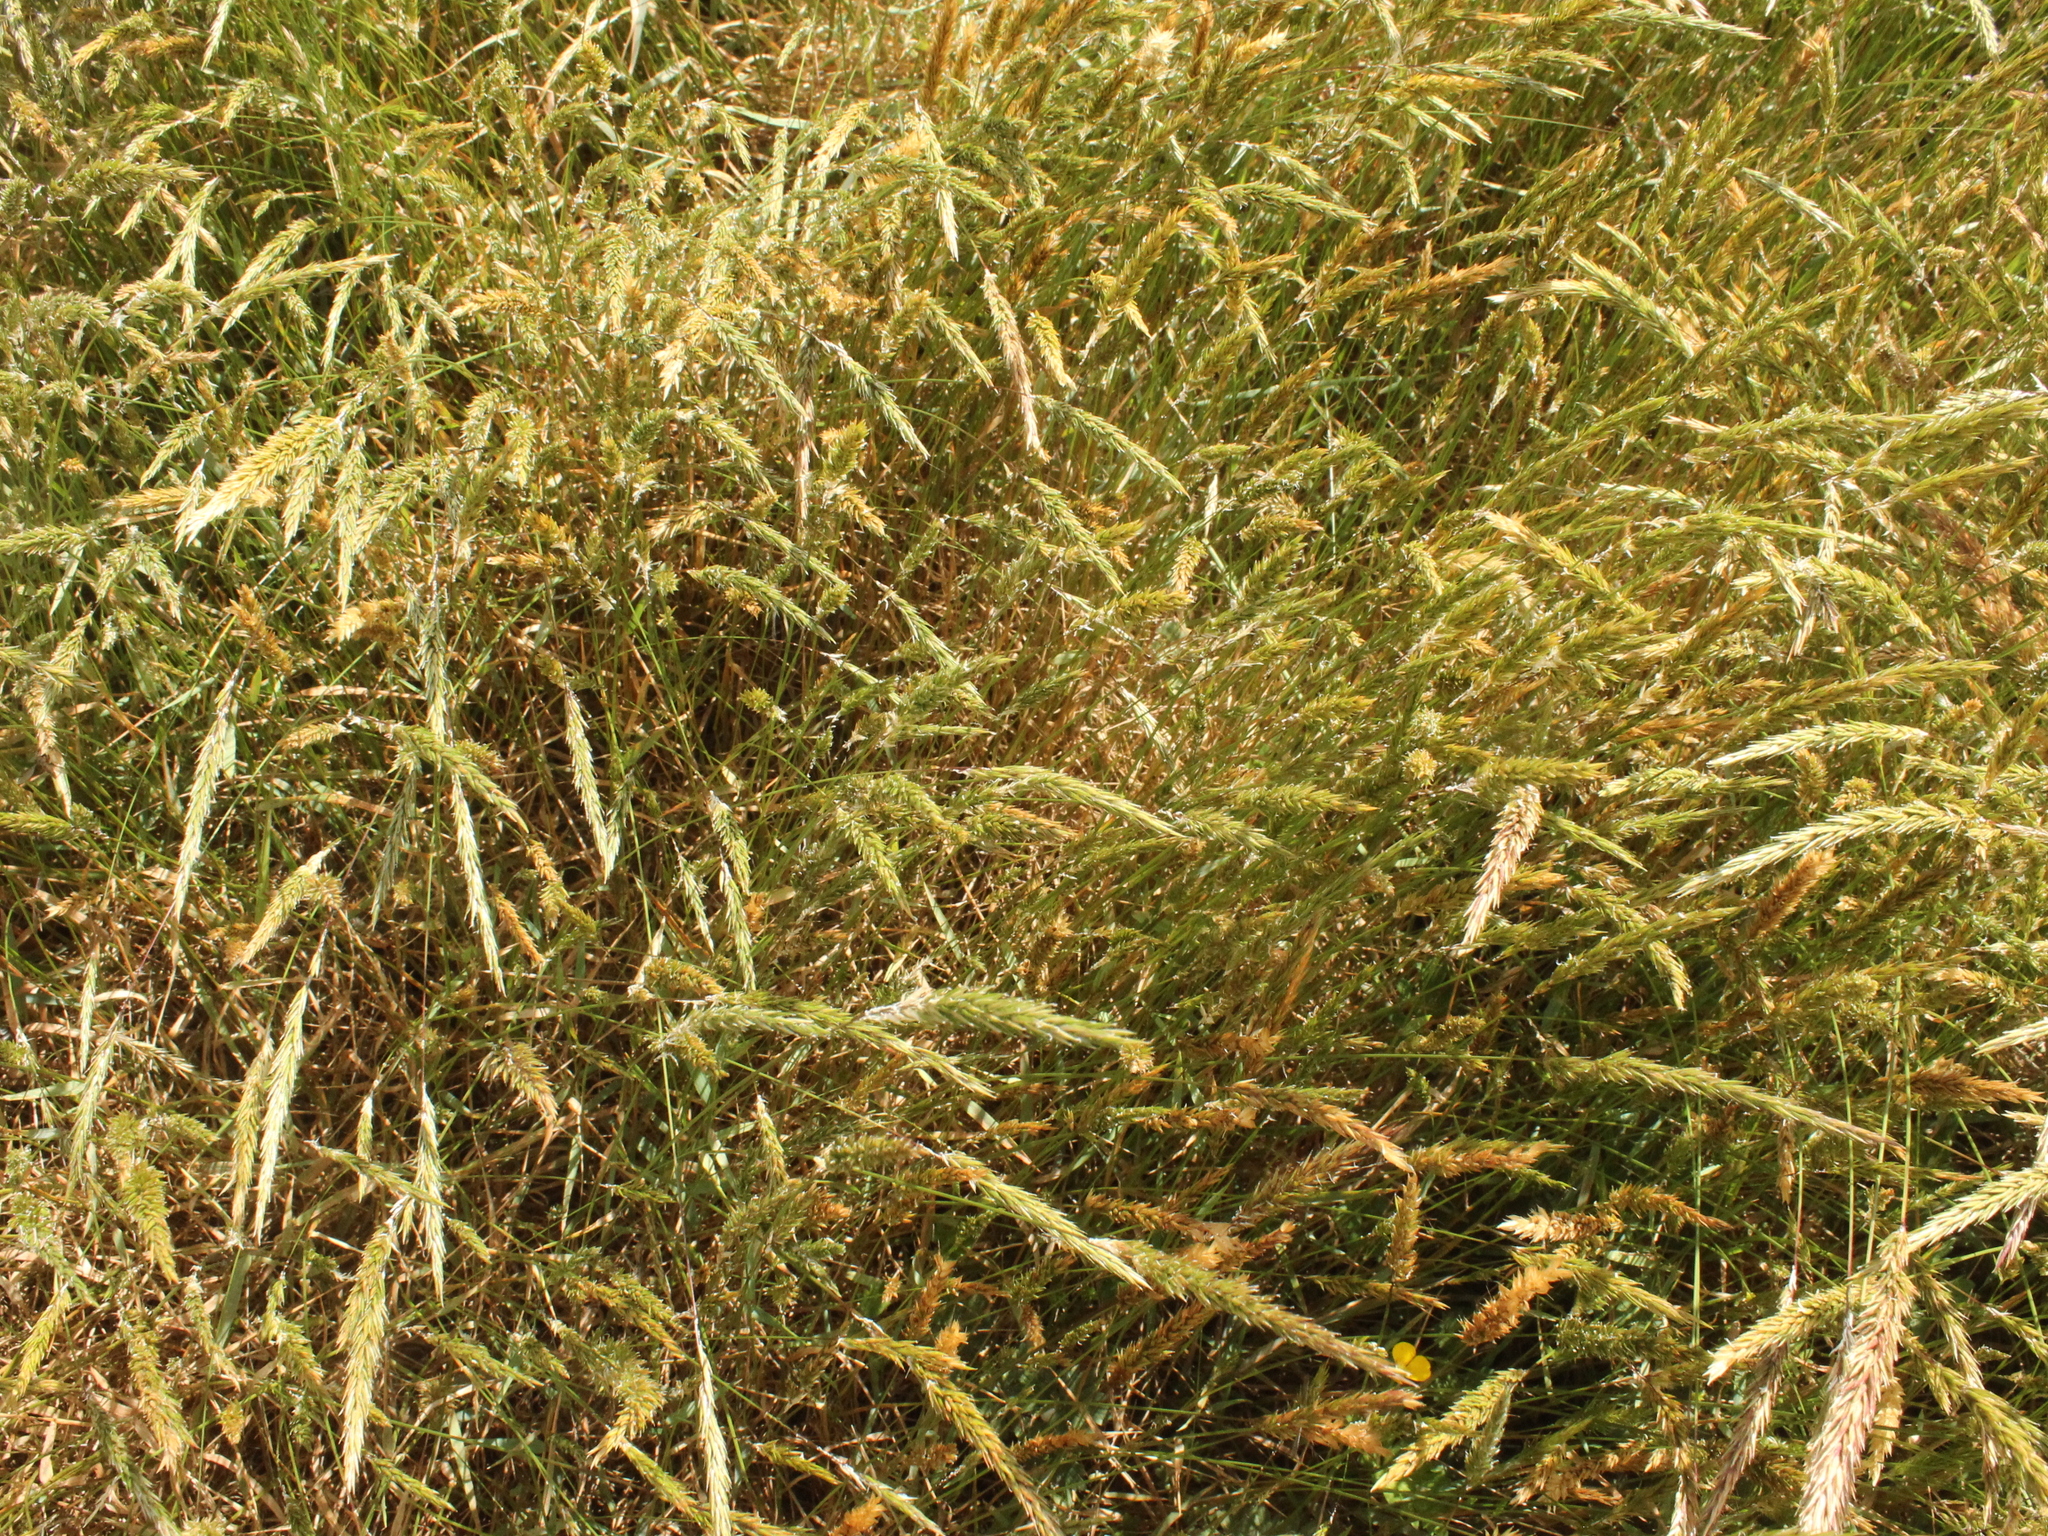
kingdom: Plantae
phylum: Tracheophyta
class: Liliopsida
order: Poales
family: Poaceae
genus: Anthoxanthum
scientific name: Anthoxanthum odoratum
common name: Sweet vernalgrass
